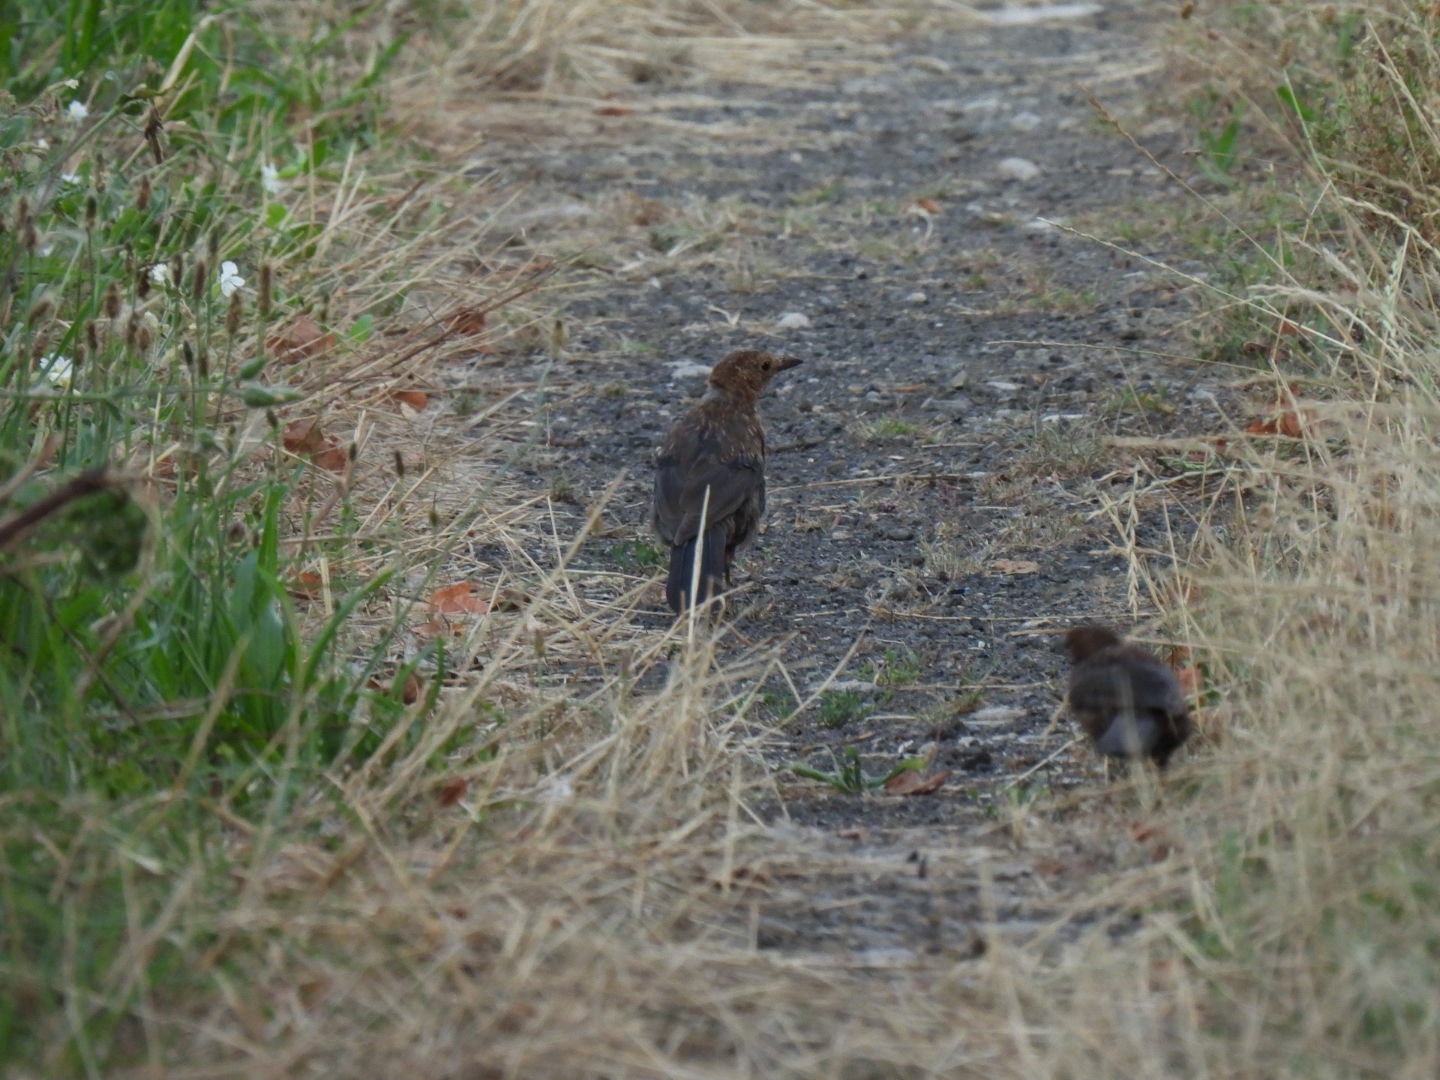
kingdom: Animalia
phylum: Chordata
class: Aves
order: Passeriformes
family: Turdidae
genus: Turdus
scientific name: Turdus merula
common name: Common blackbird
